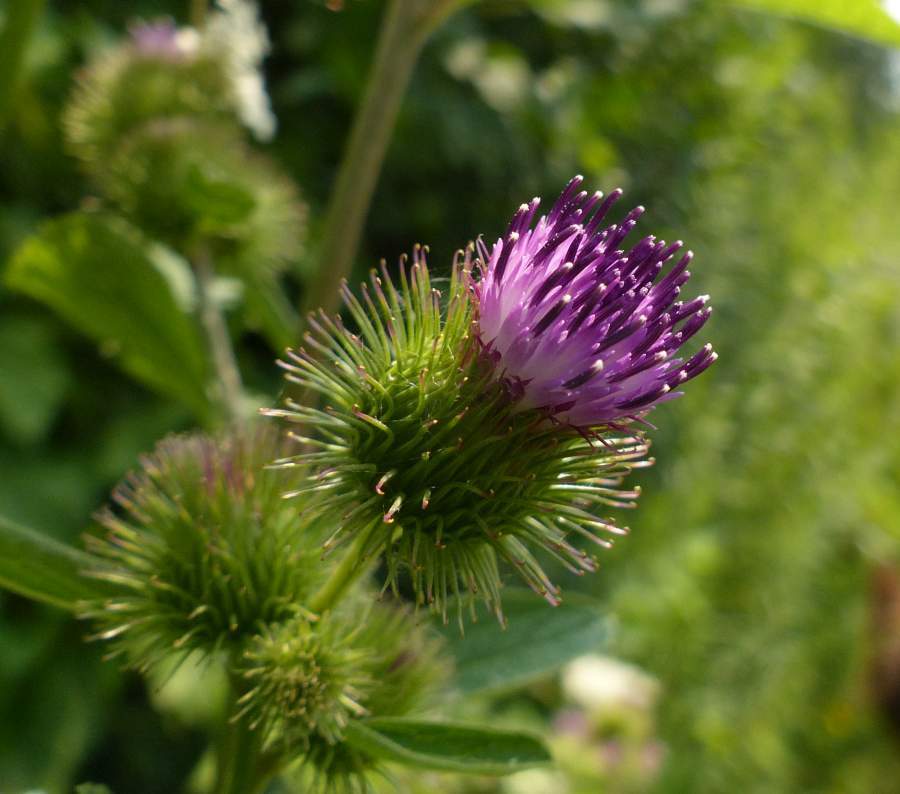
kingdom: Plantae
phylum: Tracheophyta
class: Magnoliopsida
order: Asterales
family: Asteraceae
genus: Arctium
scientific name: Arctium minus
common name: Lesser burdock
